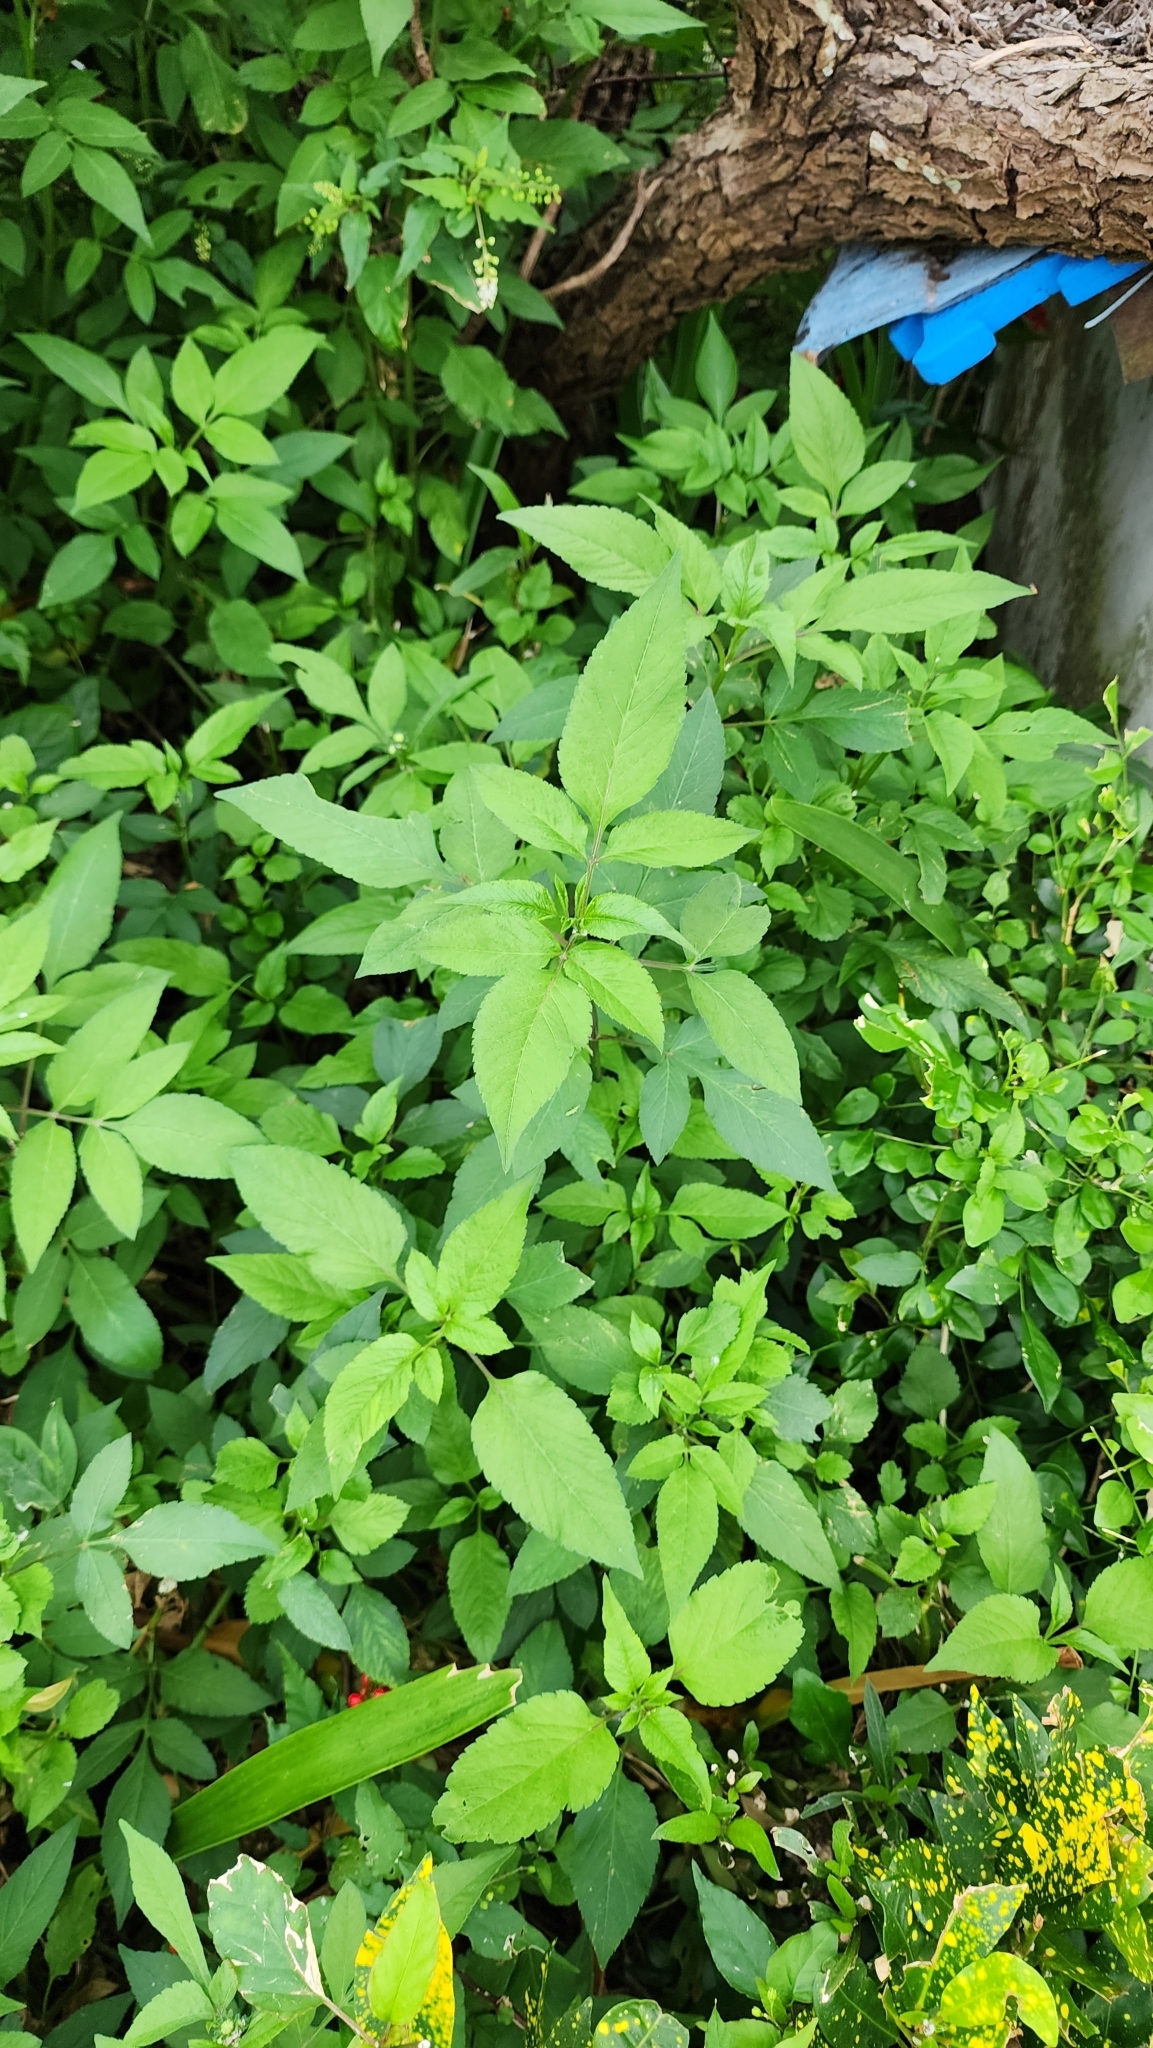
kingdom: Plantae
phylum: Tracheophyta
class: Magnoliopsida
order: Asterales
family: Asteraceae
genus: Bidens
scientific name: Bidens alba
